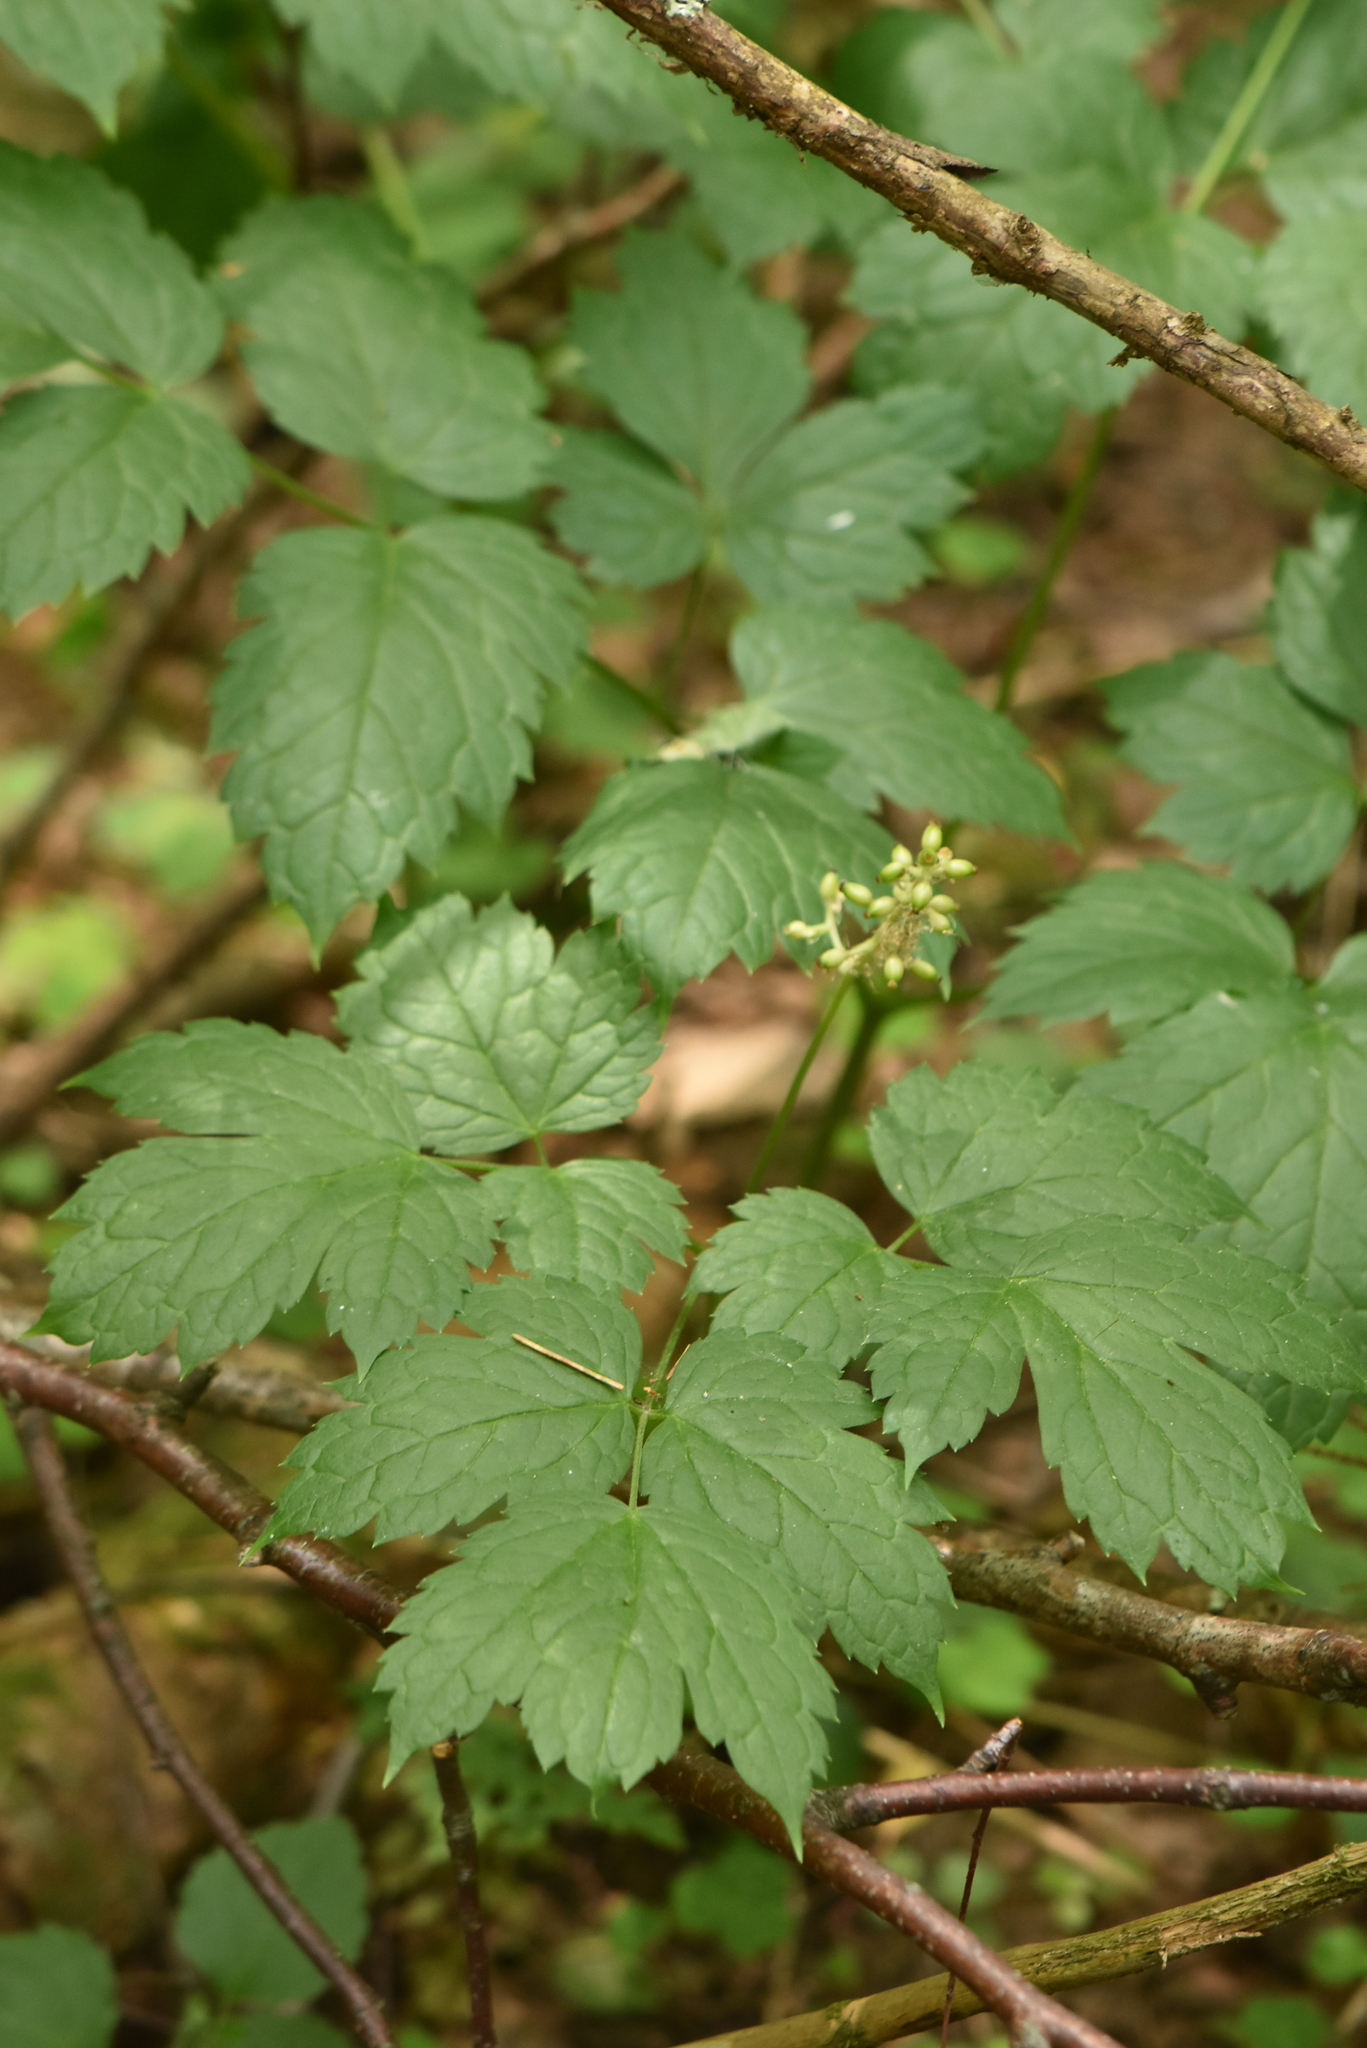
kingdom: Plantae
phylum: Tracheophyta
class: Magnoliopsida
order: Ranunculales
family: Ranunculaceae
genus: Actaea
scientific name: Actaea spicata
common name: Baneberry
